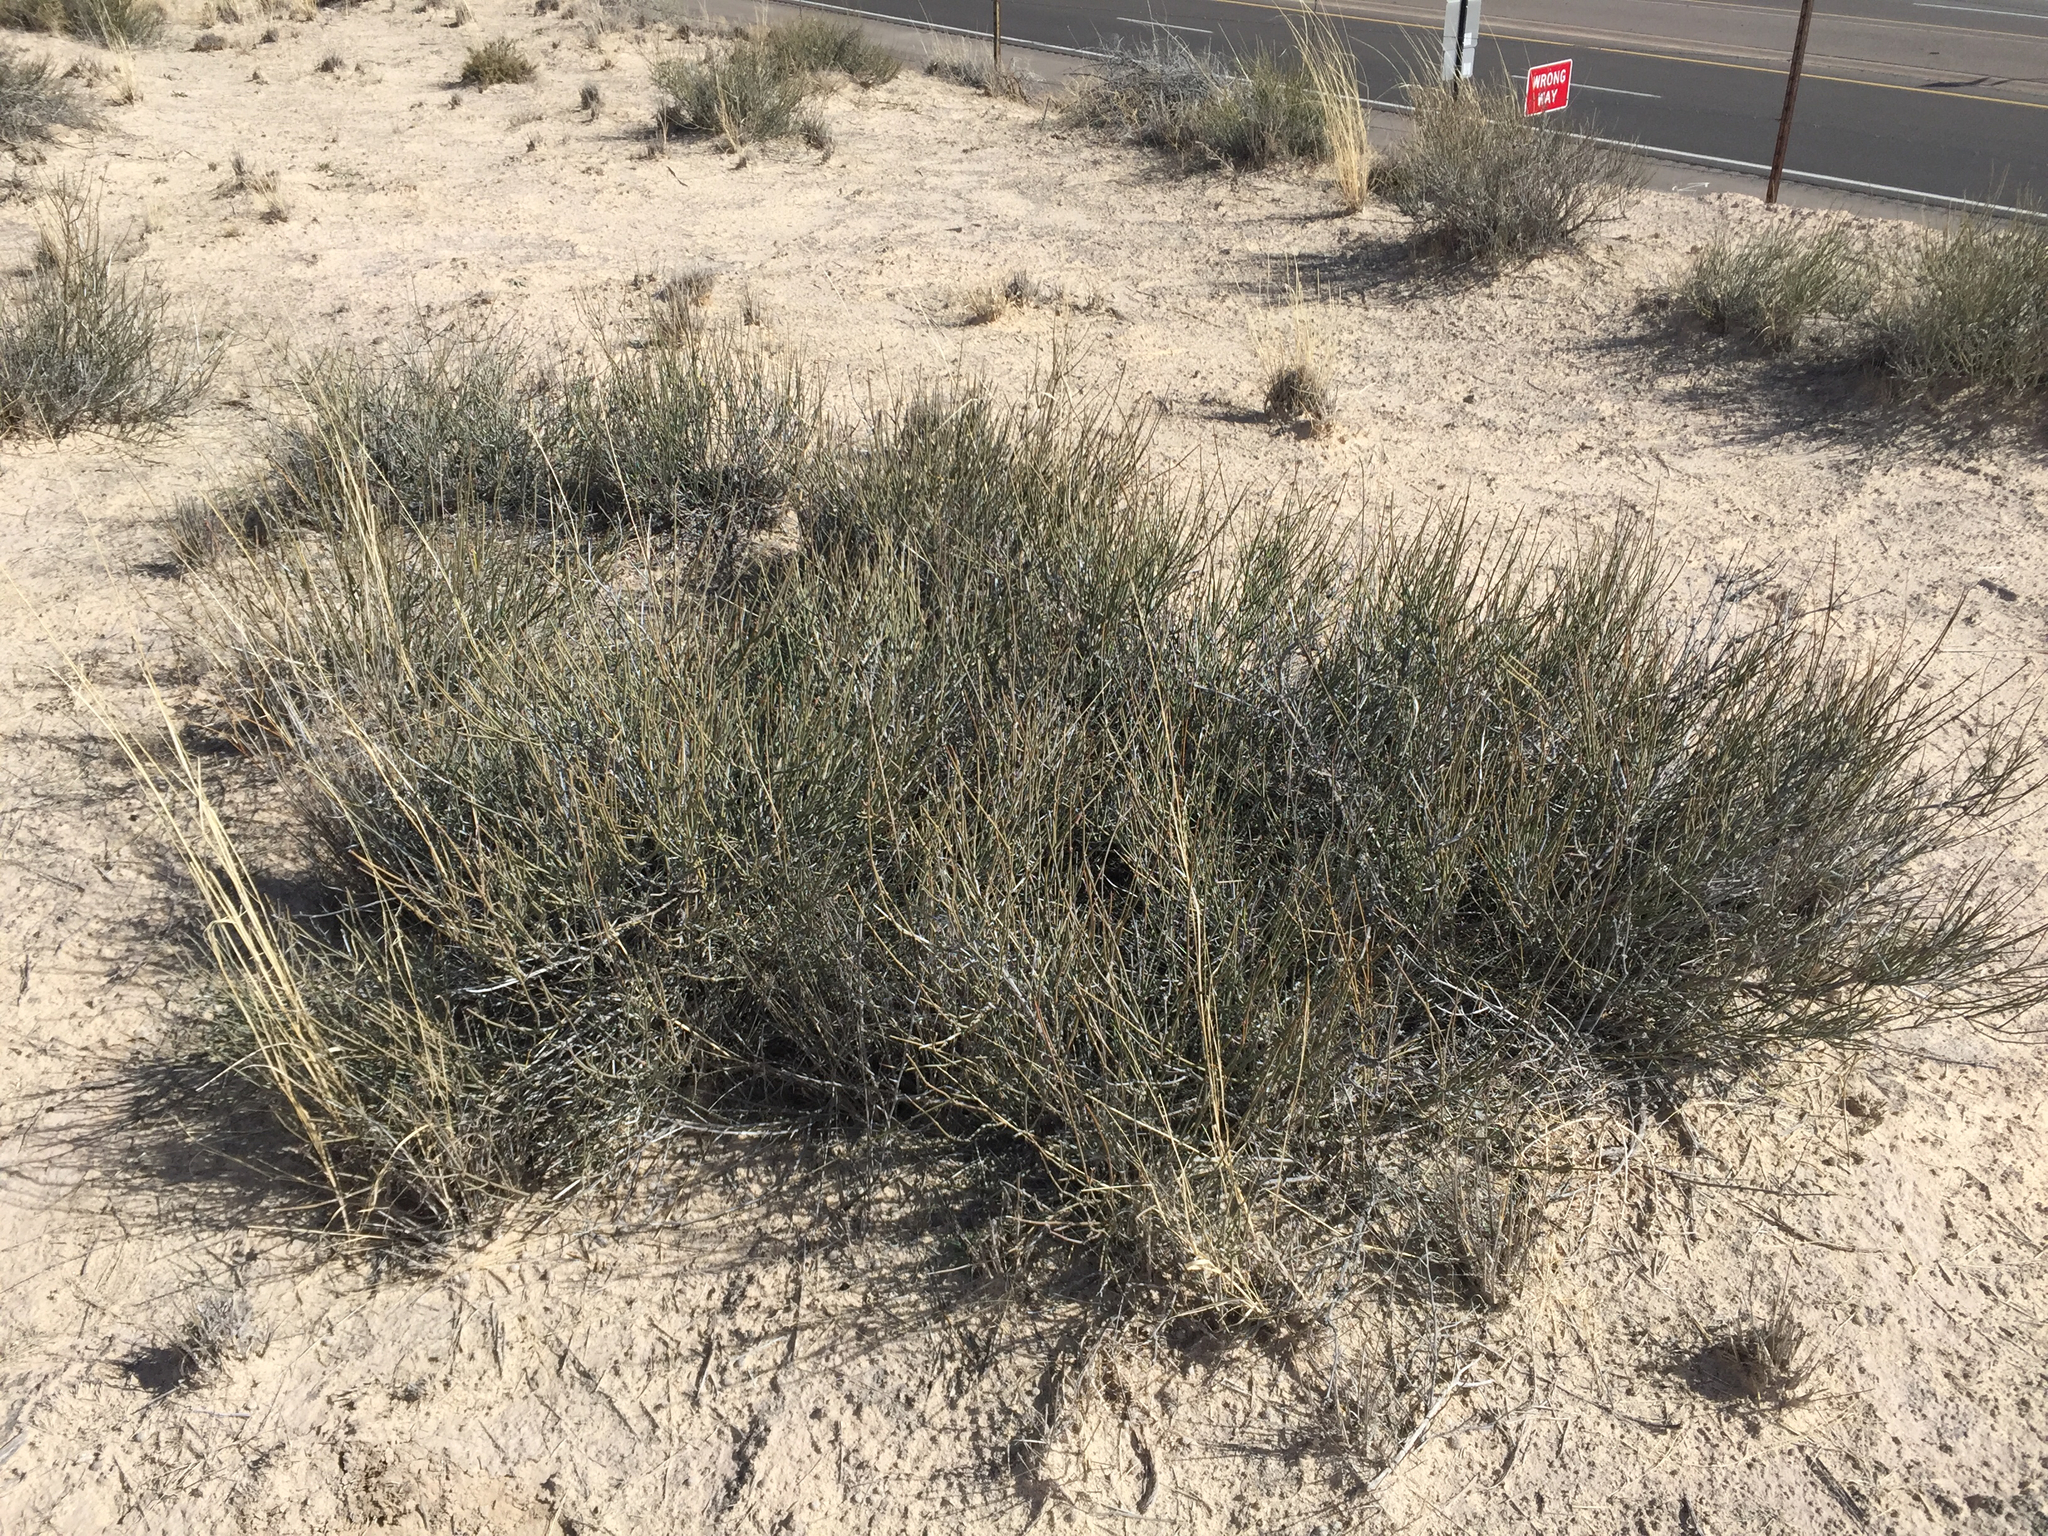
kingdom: Plantae
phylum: Tracheophyta
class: Gnetopsida
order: Ephedrales
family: Ephedraceae
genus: Ephedra
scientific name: Ephedra torreyana
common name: Torrey ephedra
